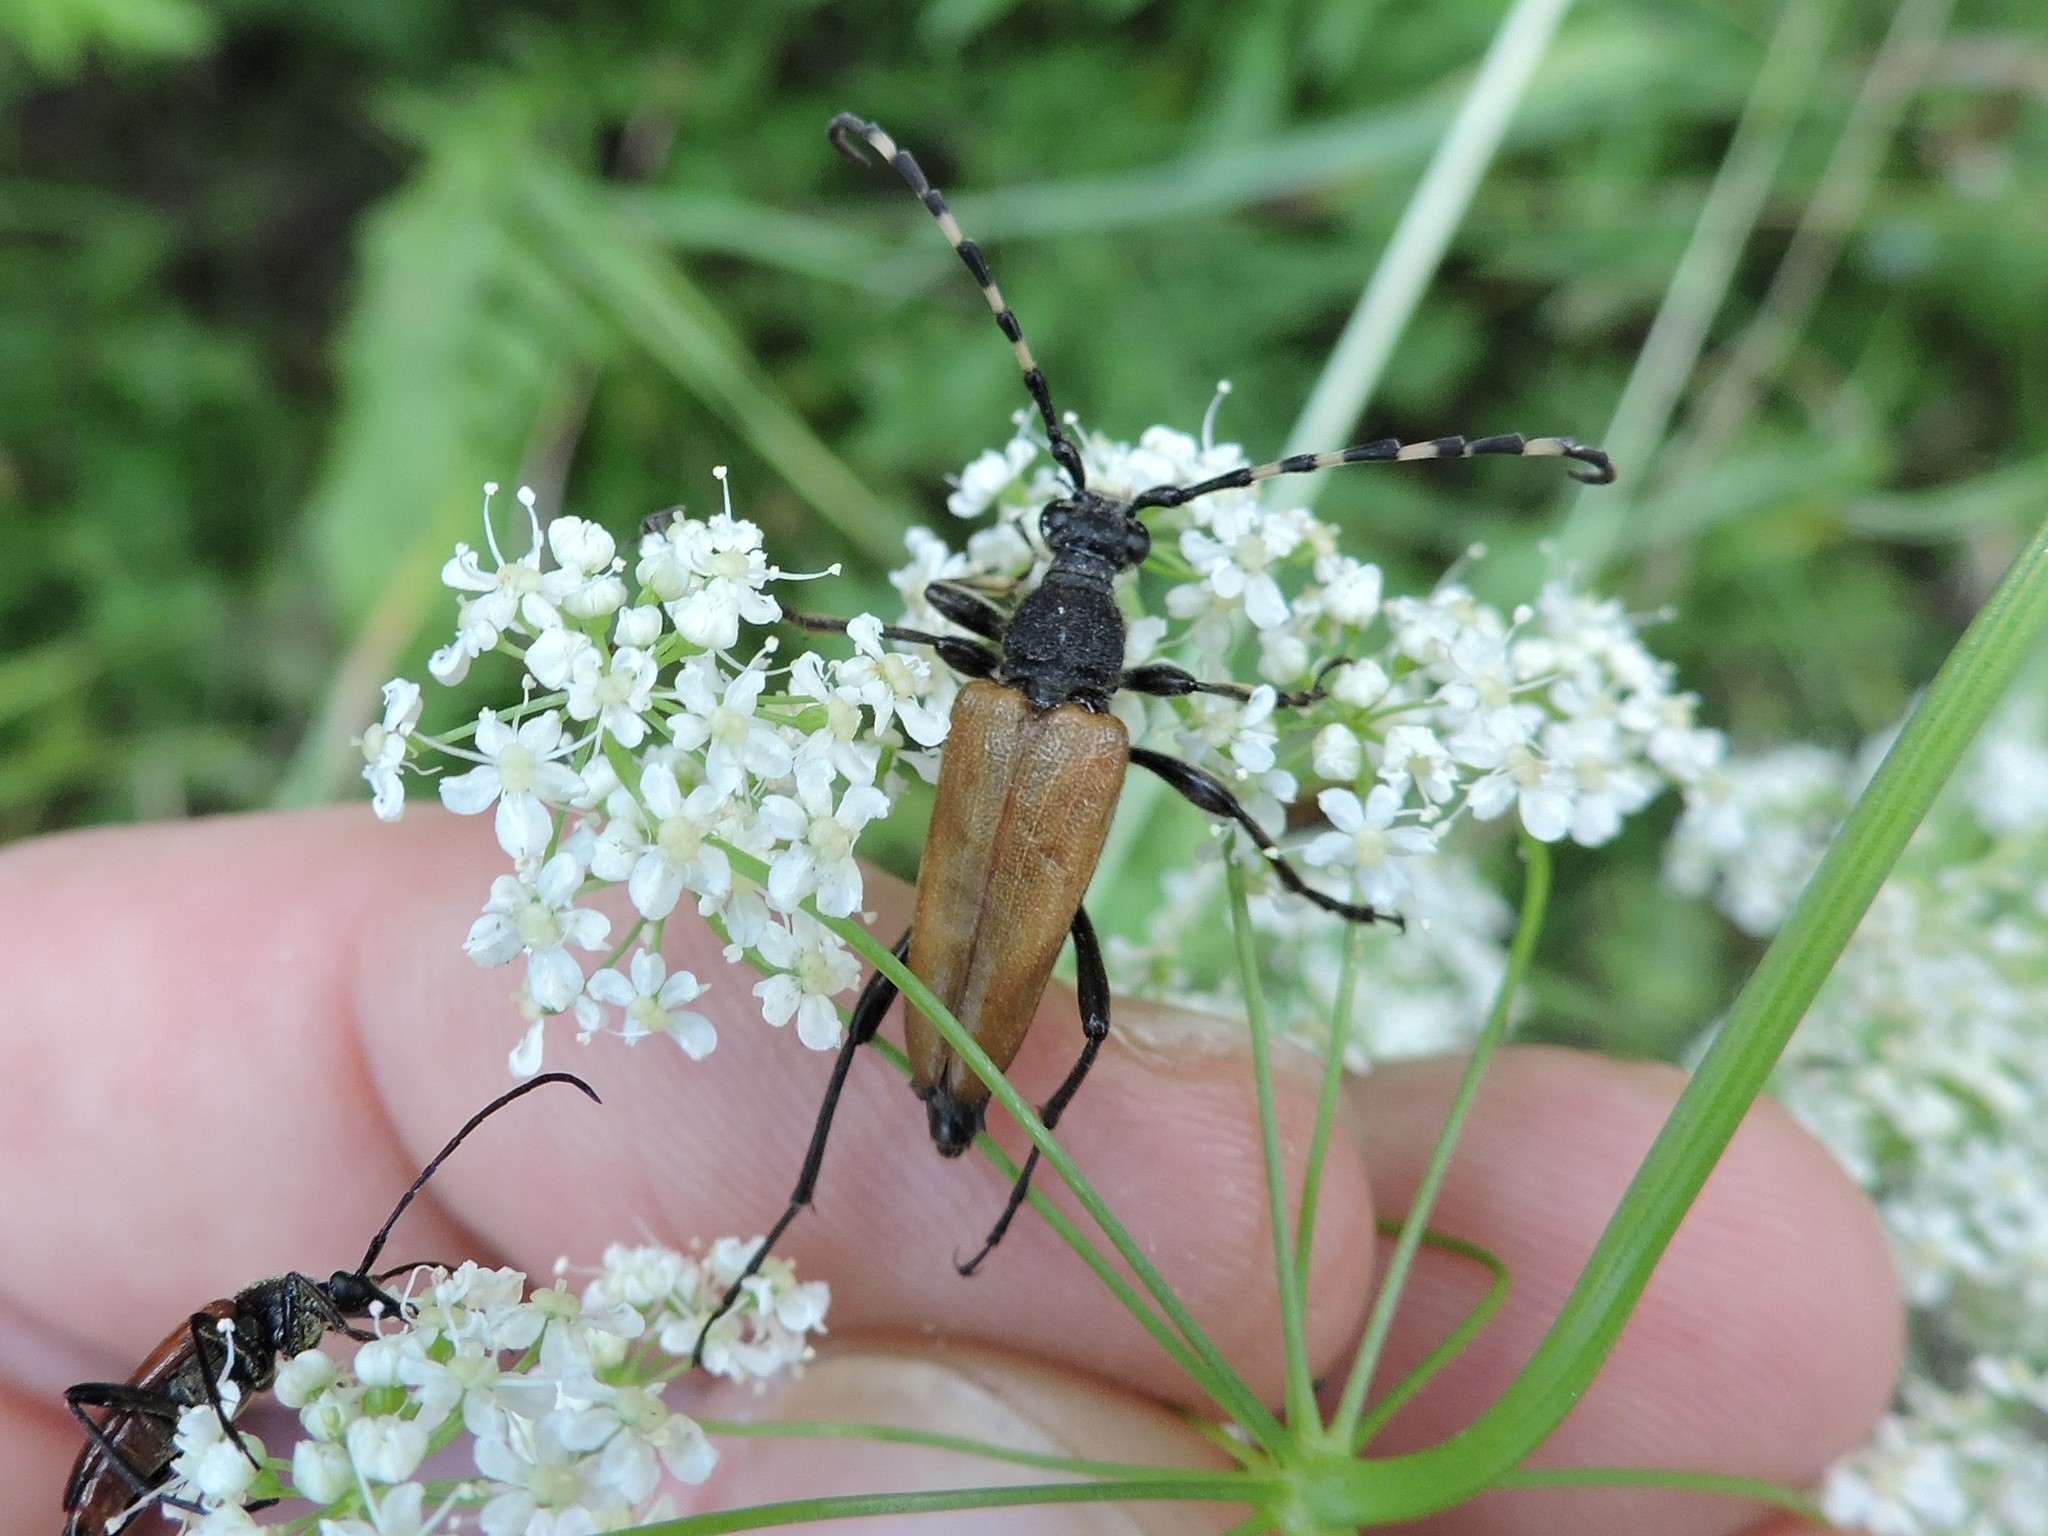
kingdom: Animalia
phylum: Arthropoda
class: Insecta
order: Coleoptera
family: Cerambycidae
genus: Stictoleptura
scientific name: Stictoleptura variicornis
